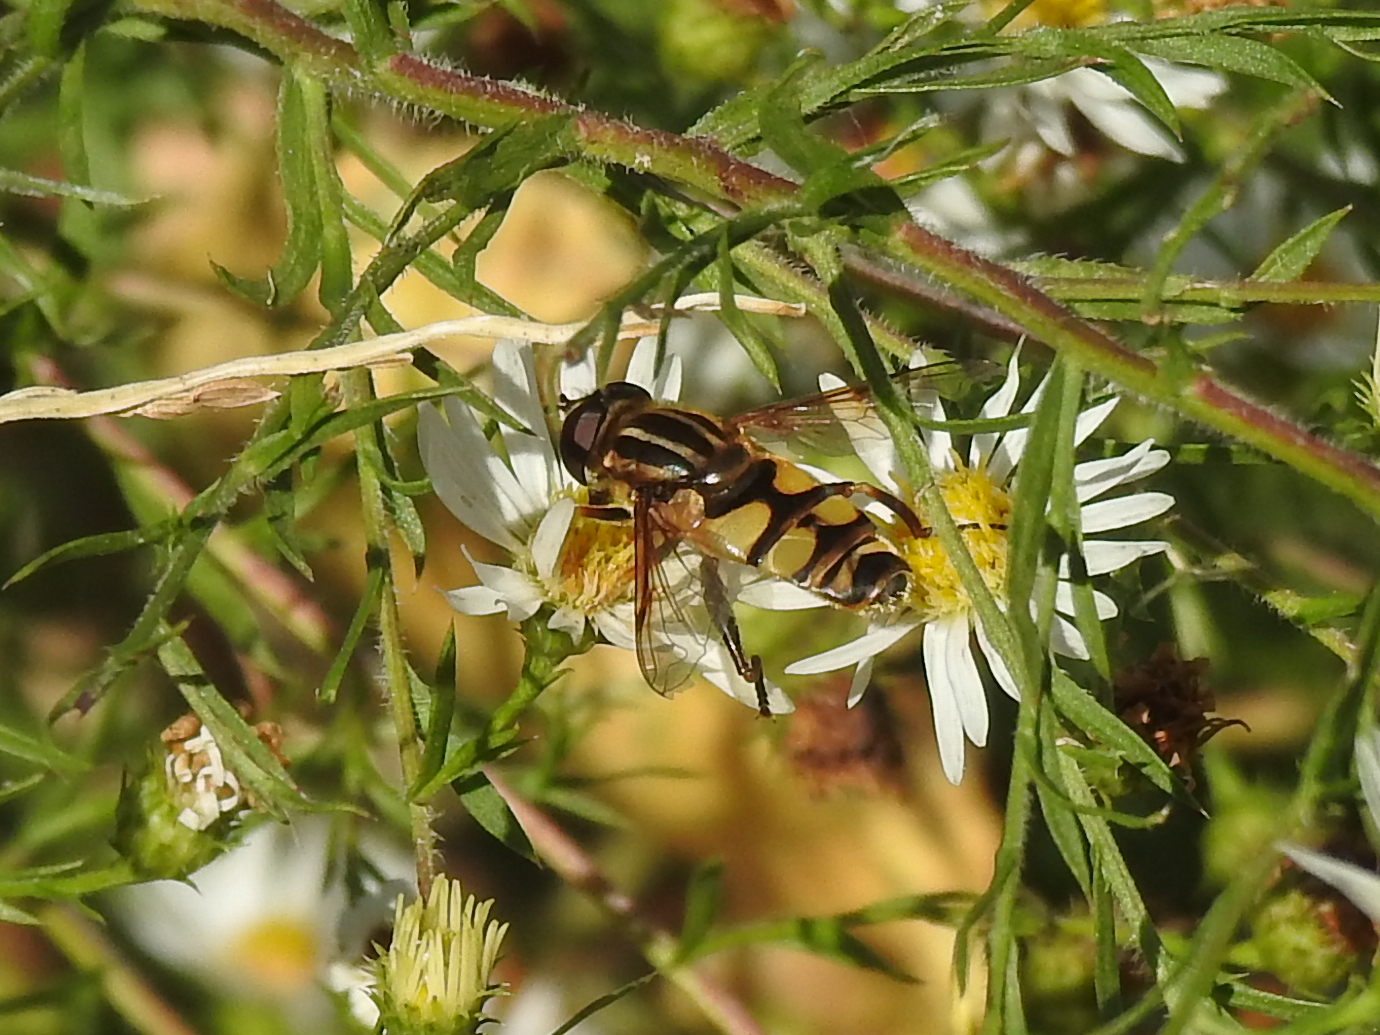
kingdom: Animalia
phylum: Arthropoda
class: Insecta
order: Diptera
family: Syrphidae
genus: Helophilus
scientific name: Helophilus fasciatus
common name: Narrow-headed marsh fly
